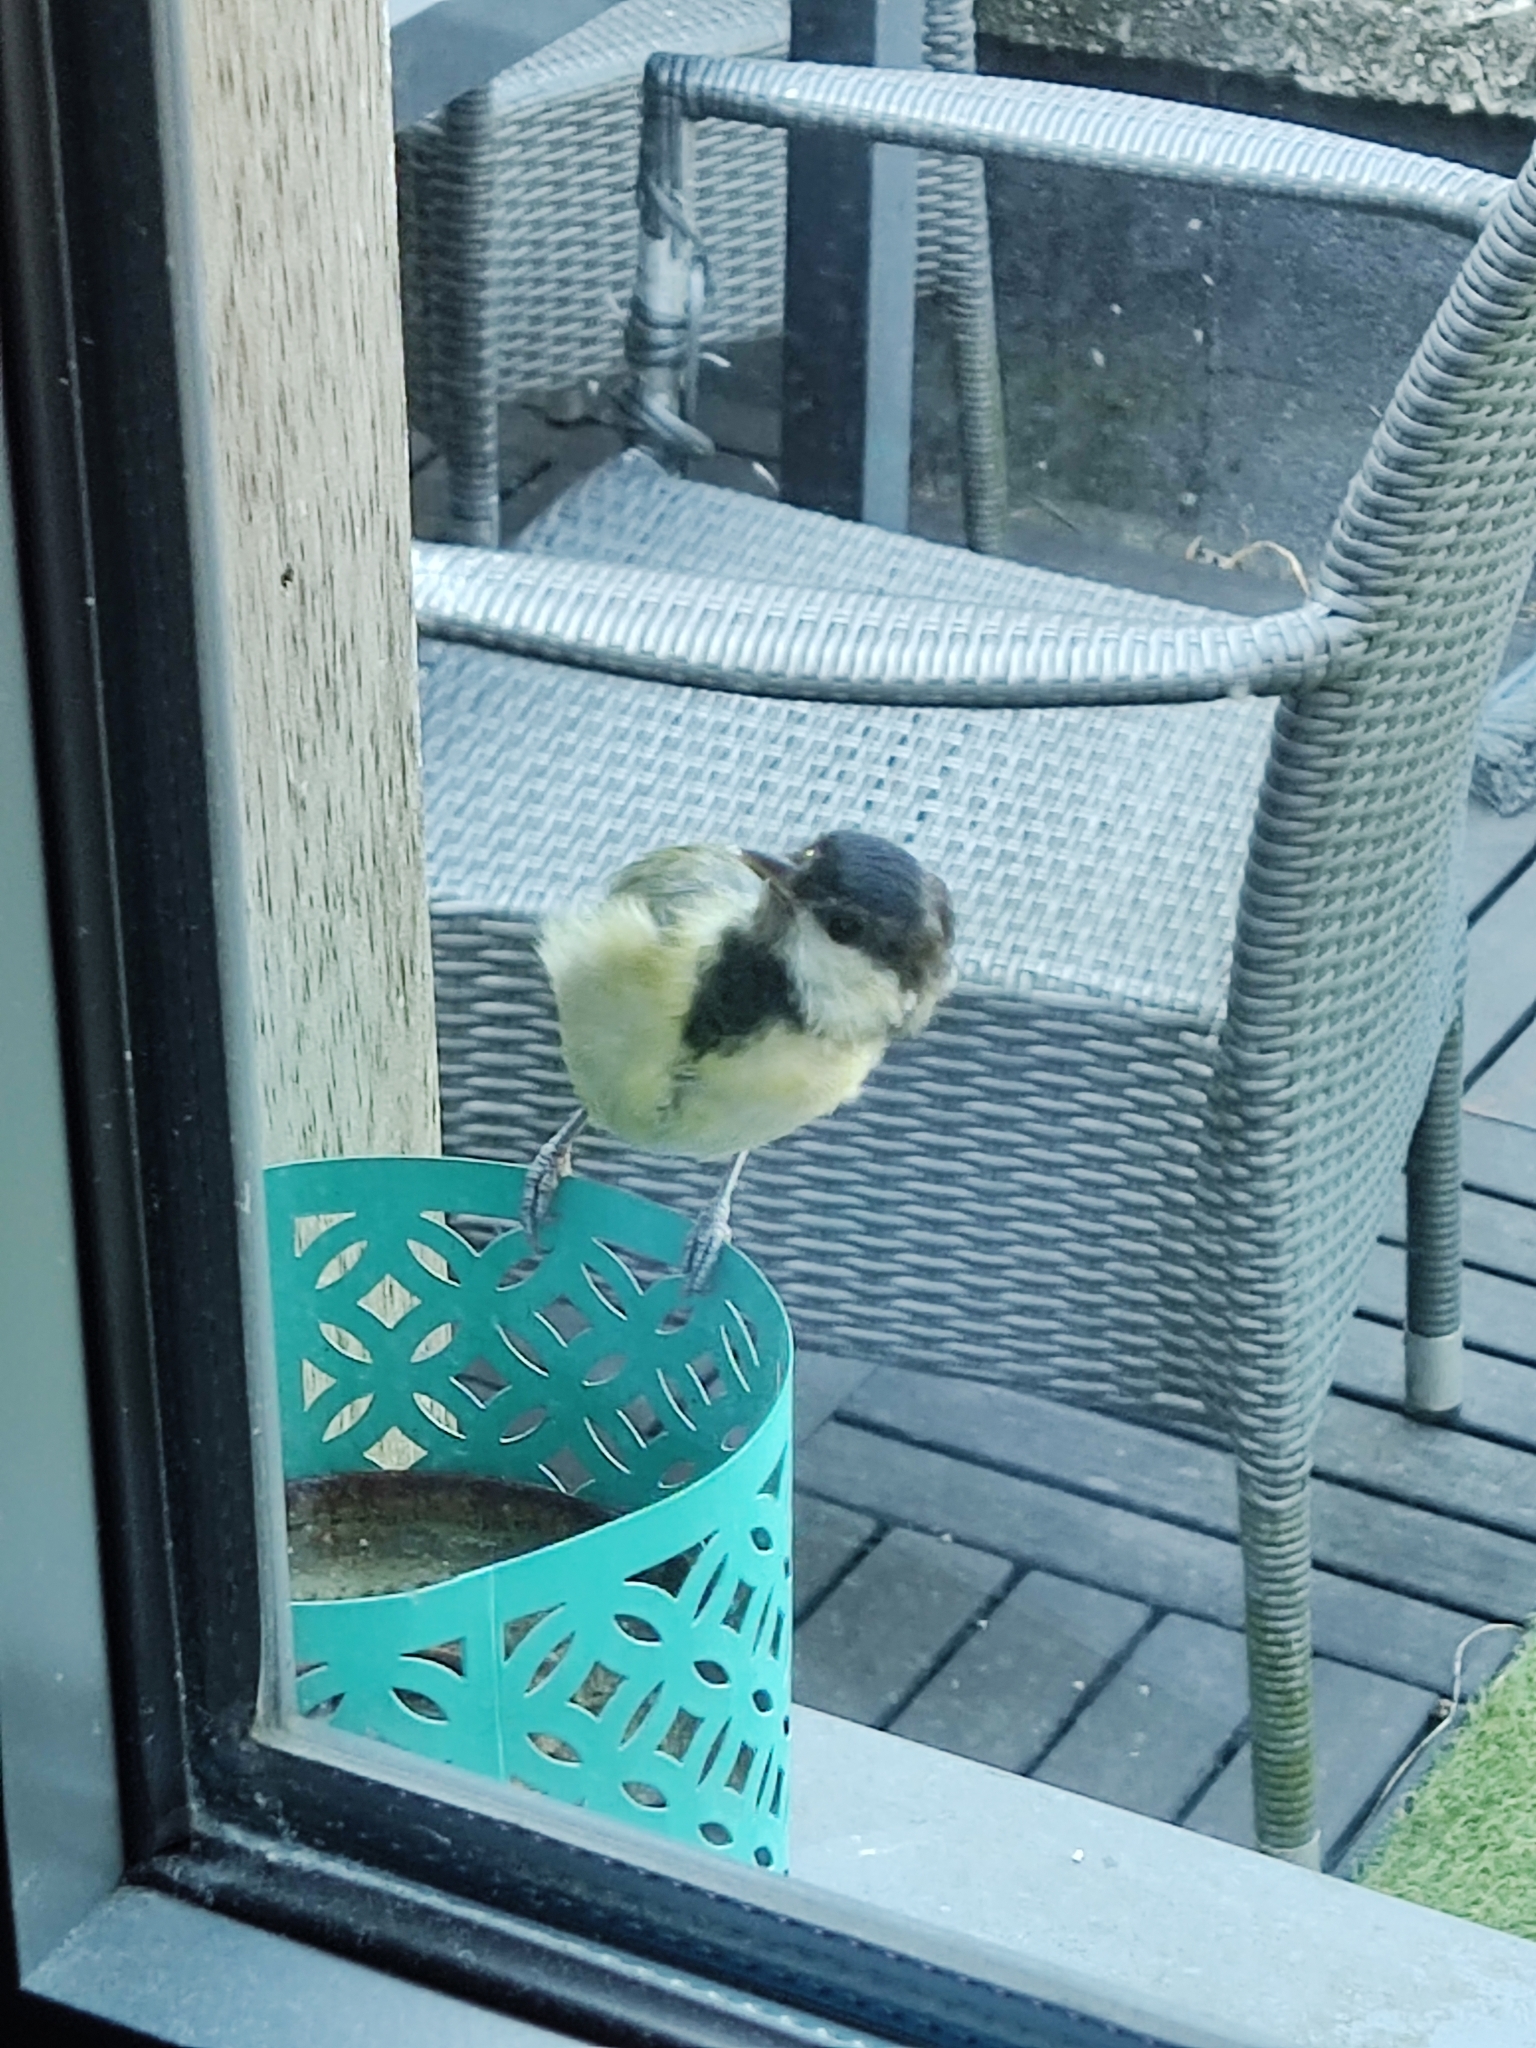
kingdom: Animalia
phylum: Chordata
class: Aves
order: Passeriformes
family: Paridae
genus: Parus
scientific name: Parus major
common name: Great tit
